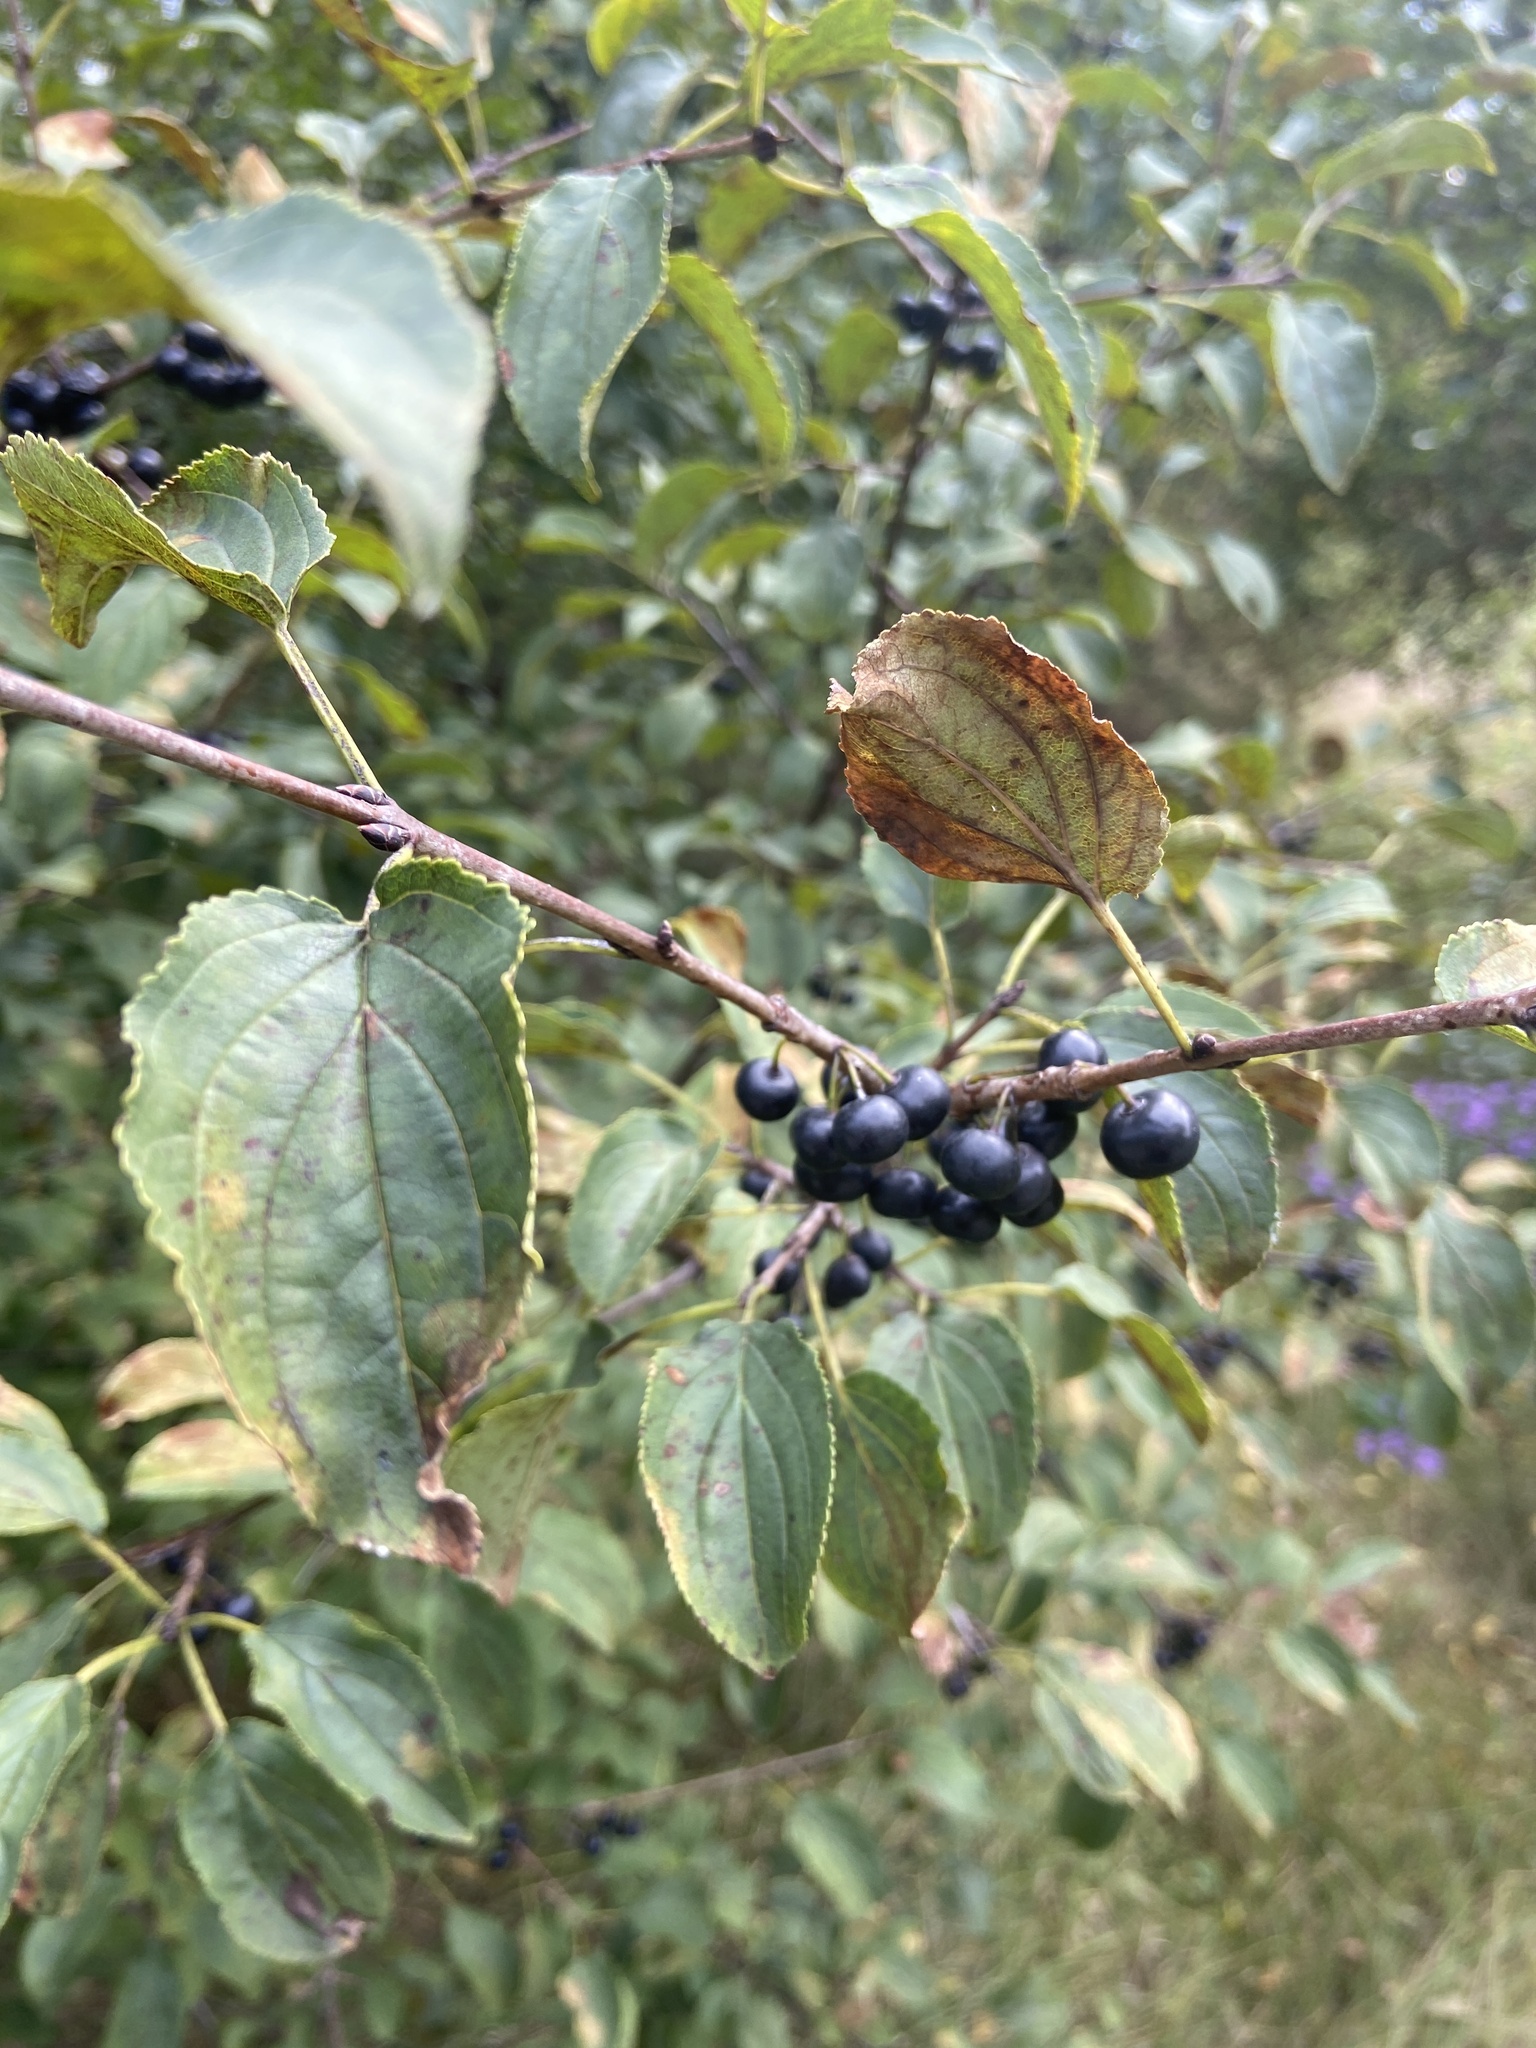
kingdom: Plantae
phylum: Tracheophyta
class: Magnoliopsida
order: Rosales
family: Rhamnaceae
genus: Rhamnus
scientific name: Rhamnus cathartica
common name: Common buckthorn
